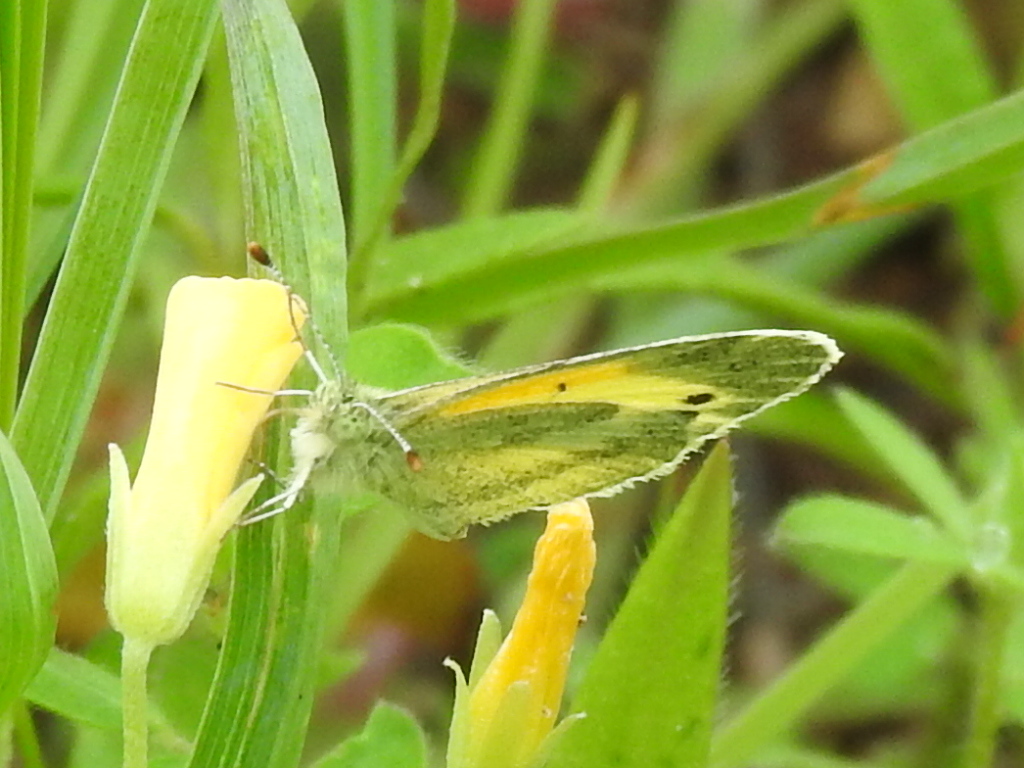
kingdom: Animalia
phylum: Arthropoda
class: Insecta
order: Lepidoptera
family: Pieridae
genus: Nathalis
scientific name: Nathalis iole
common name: Dainty sulphur
